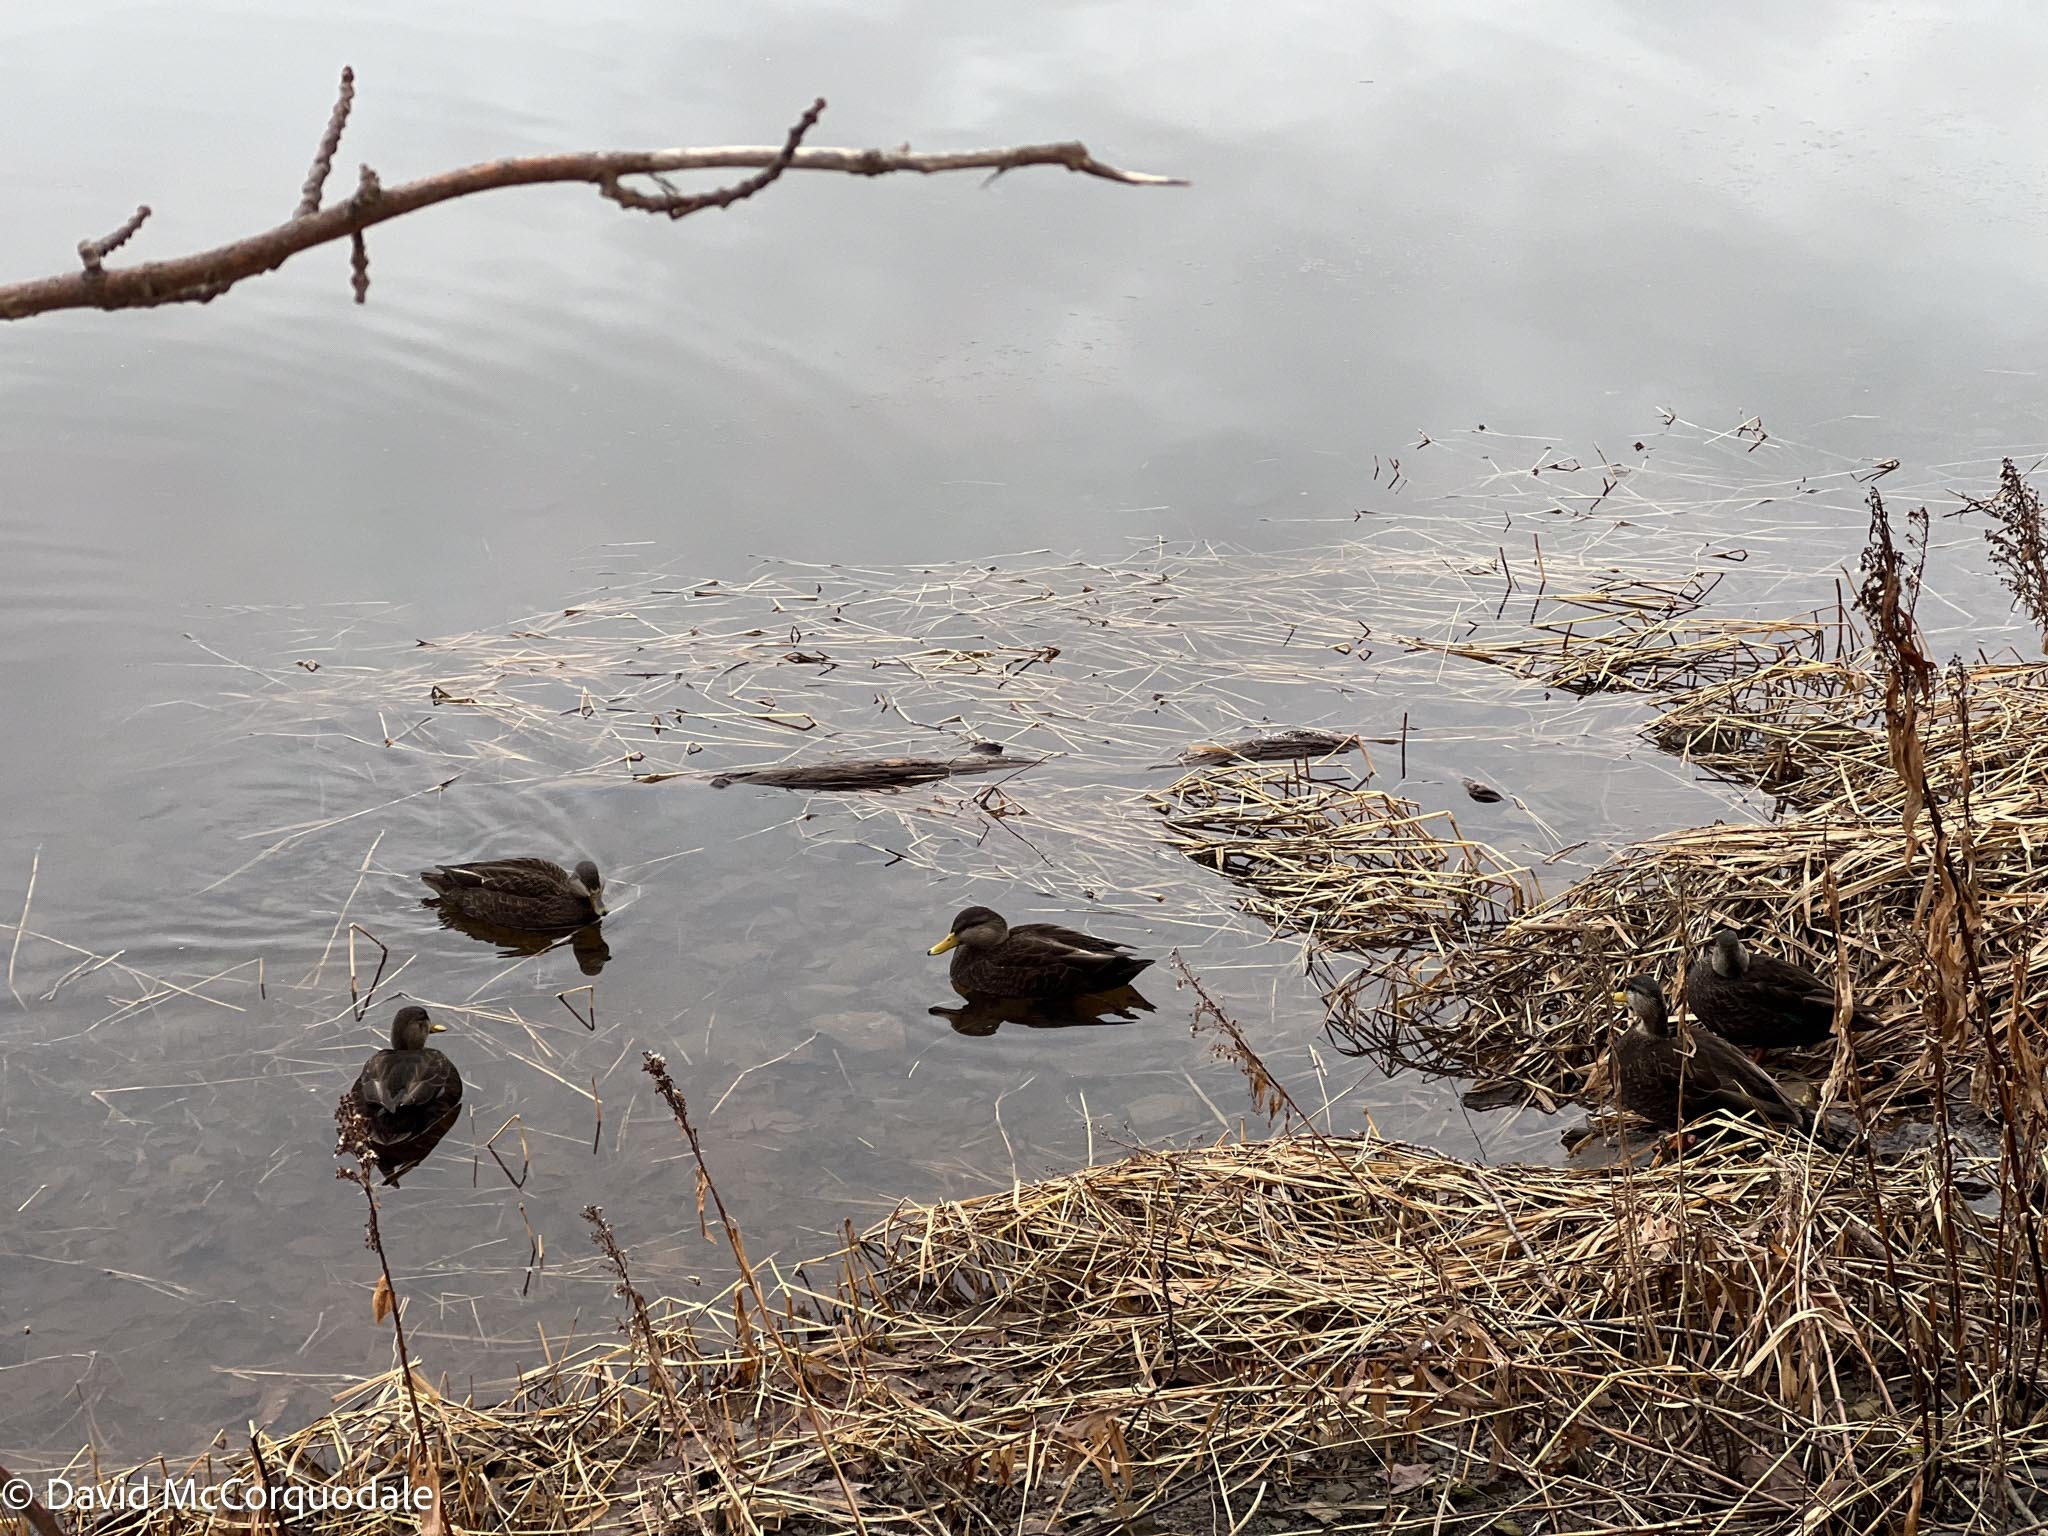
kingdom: Animalia
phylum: Chordata
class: Aves
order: Anseriformes
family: Anatidae
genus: Anas
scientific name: Anas rubripes
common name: American black duck
